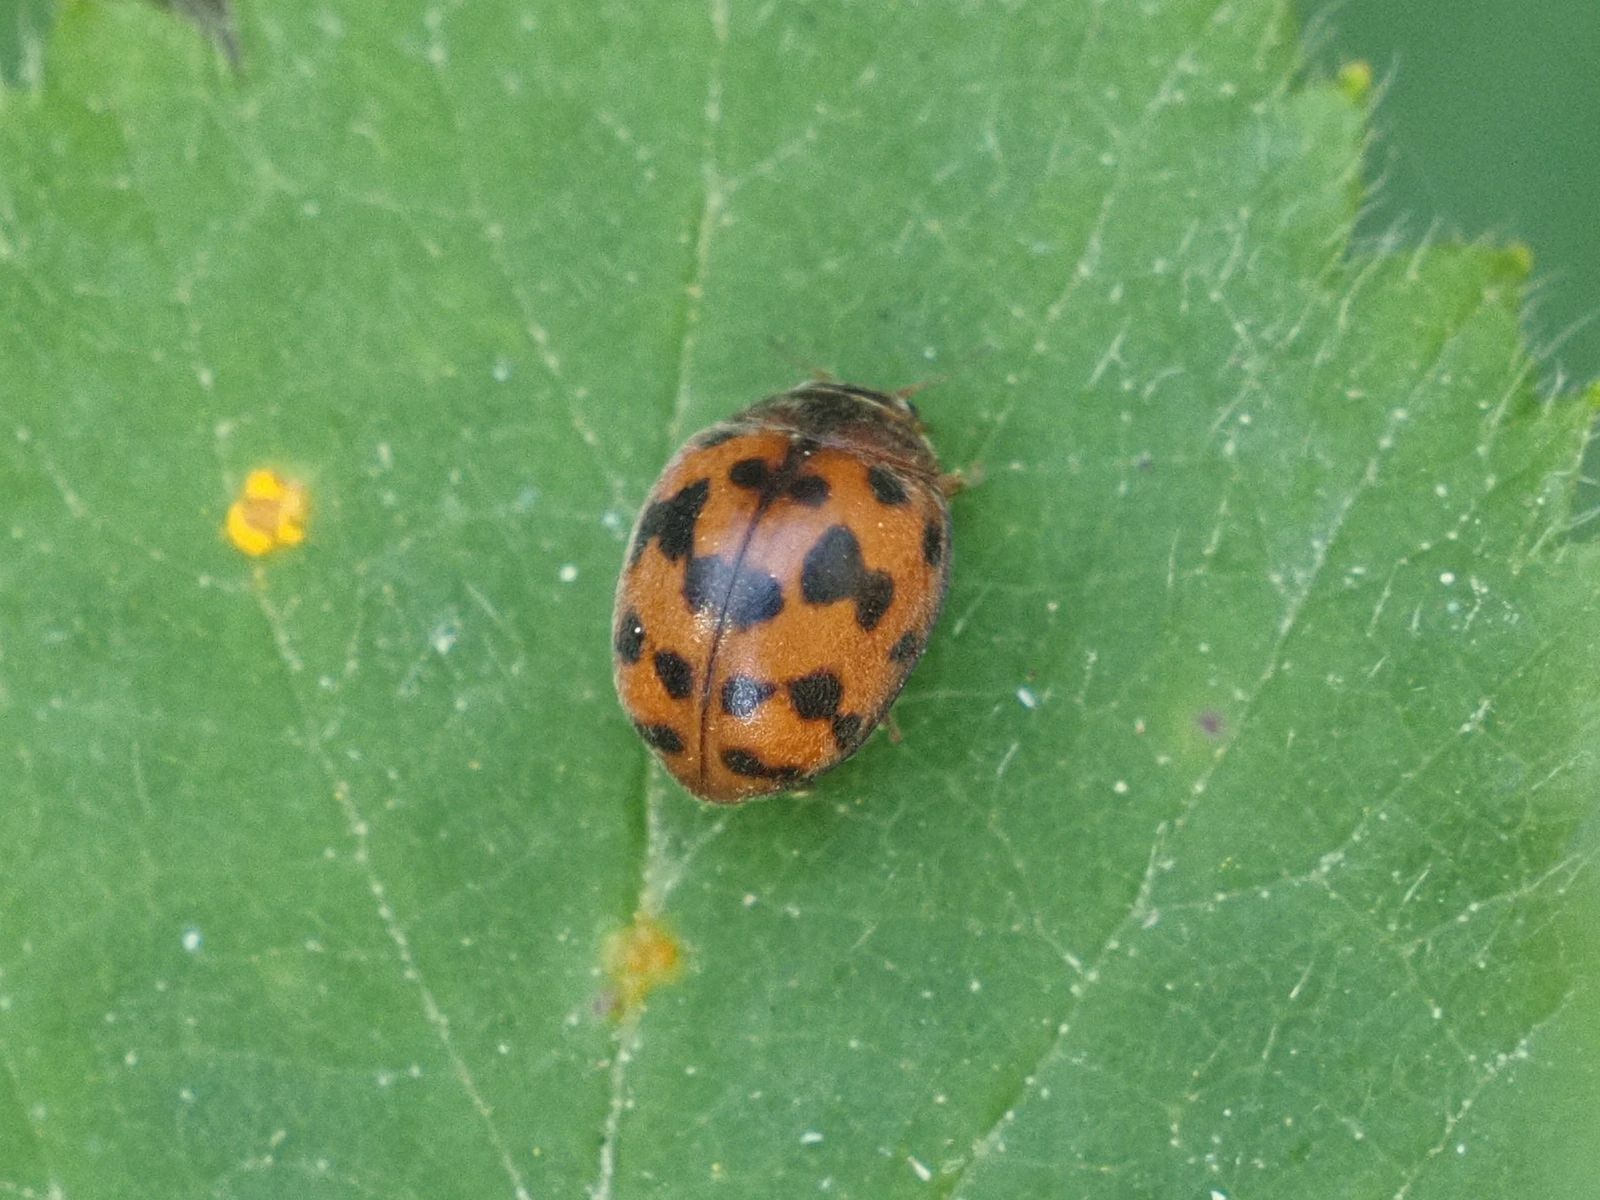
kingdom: Animalia
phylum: Arthropoda
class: Insecta
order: Coleoptera
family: Coccinellidae
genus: Subcoccinella
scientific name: Subcoccinella vigintiquatuorpunctata
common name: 24-spot ladybird
